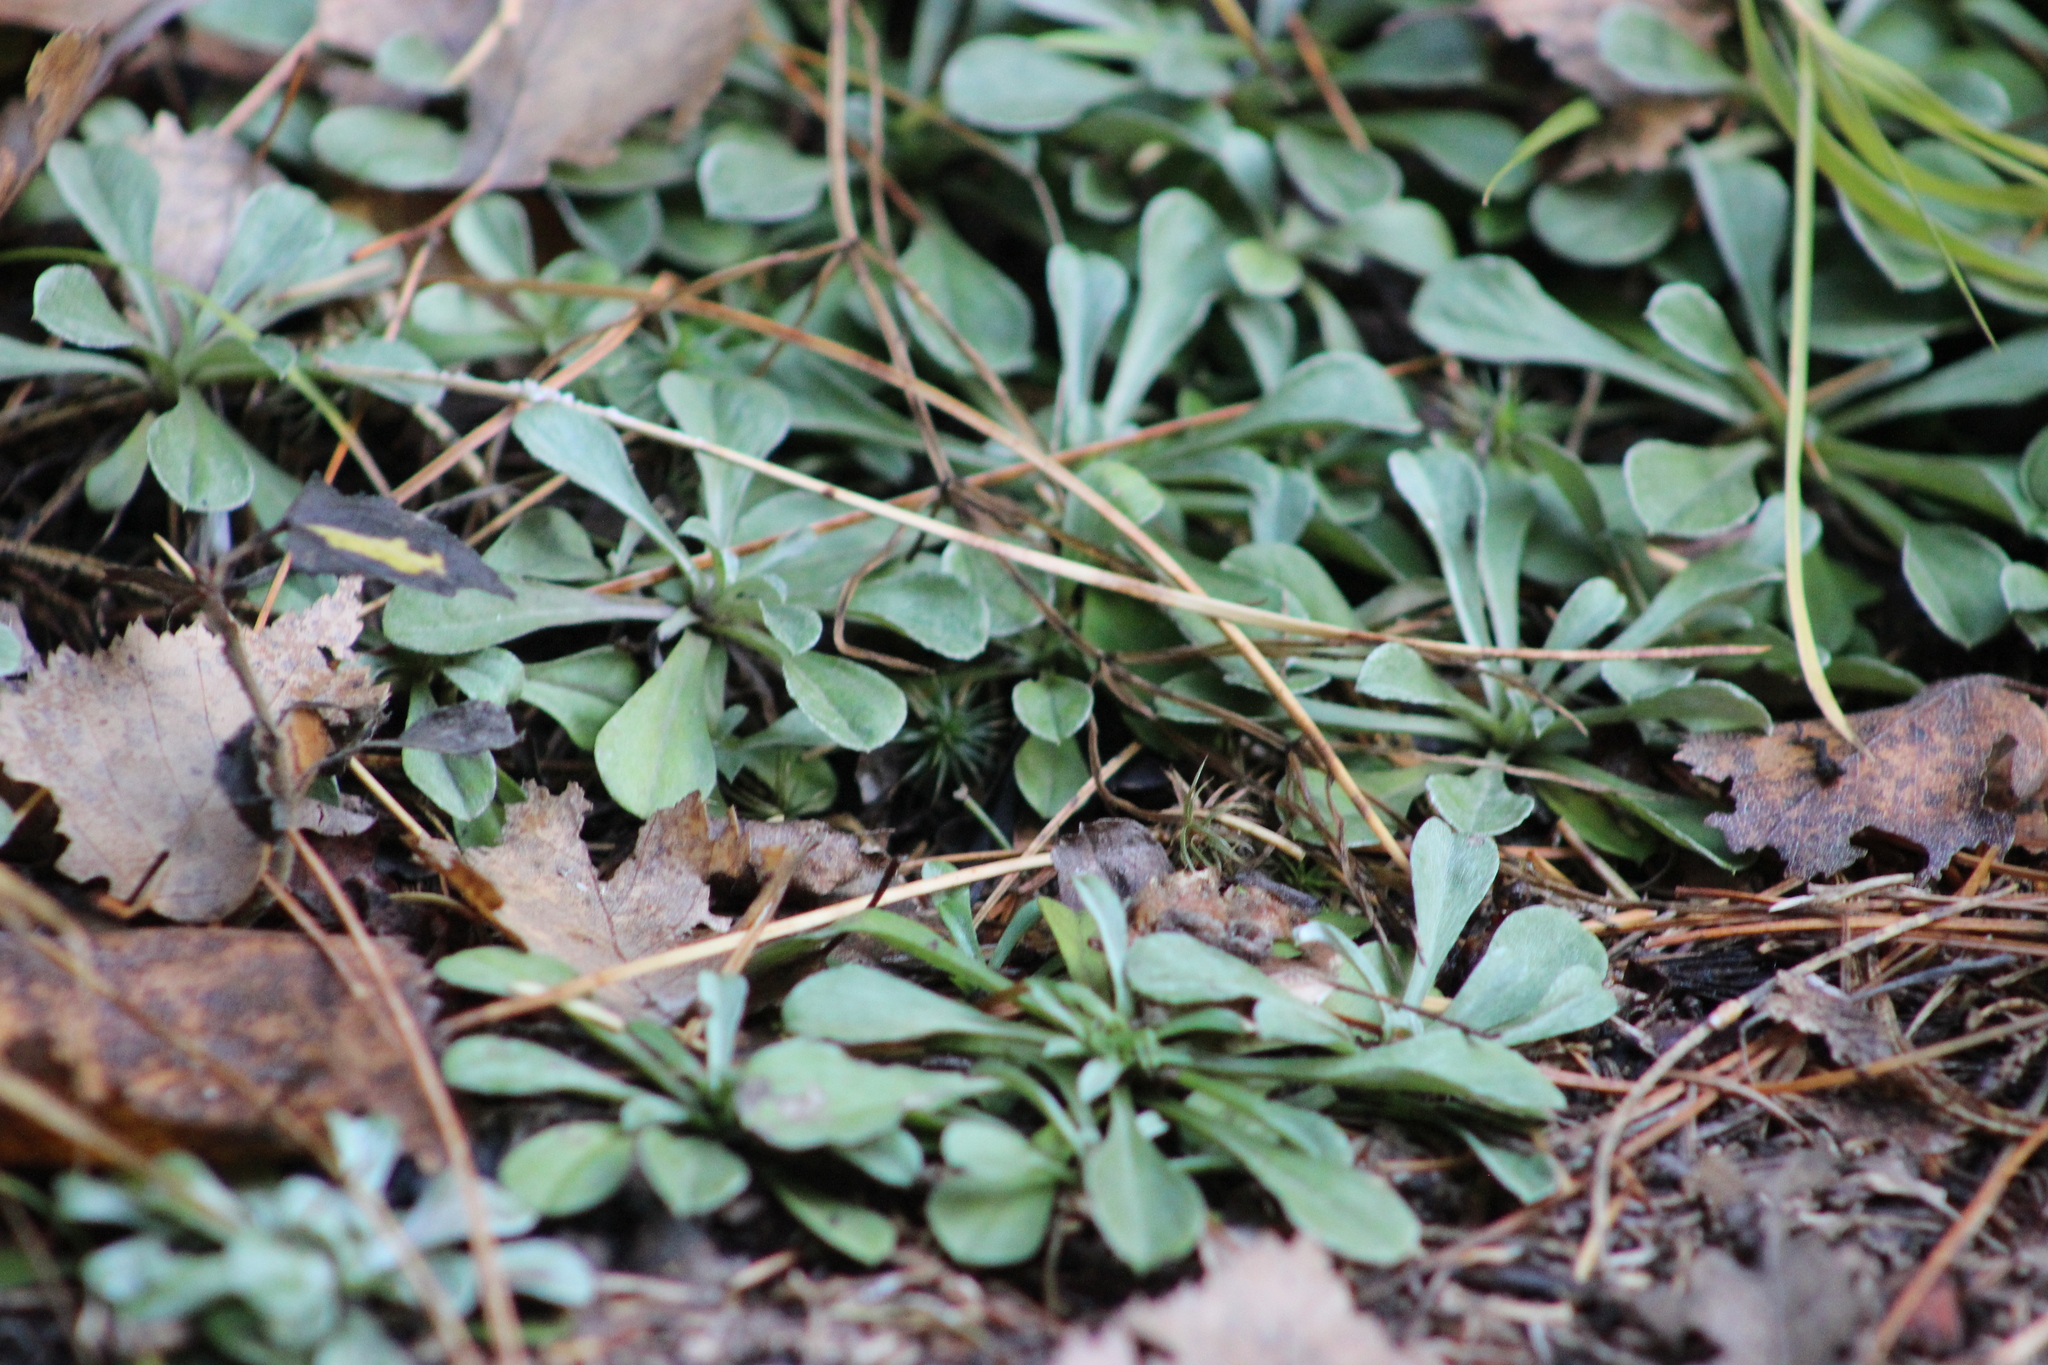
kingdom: Plantae
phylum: Tracheophyta
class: Magnoliopsida
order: Asterales
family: Asteraceae
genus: Antennaria
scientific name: Antennaria dioica
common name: Mountain everlasting
